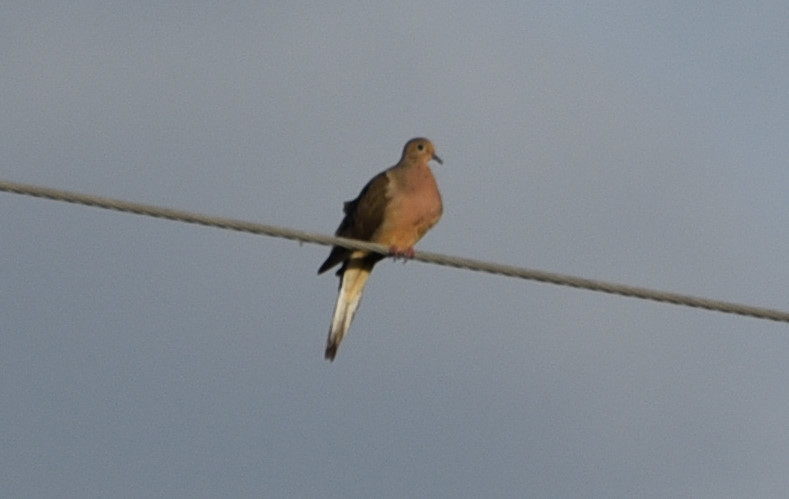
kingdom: Animalia
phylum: Chordata
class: Aves
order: Columbiformes
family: Columbidae
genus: Zenaida
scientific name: Zenaida macroura
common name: Mourning dove
